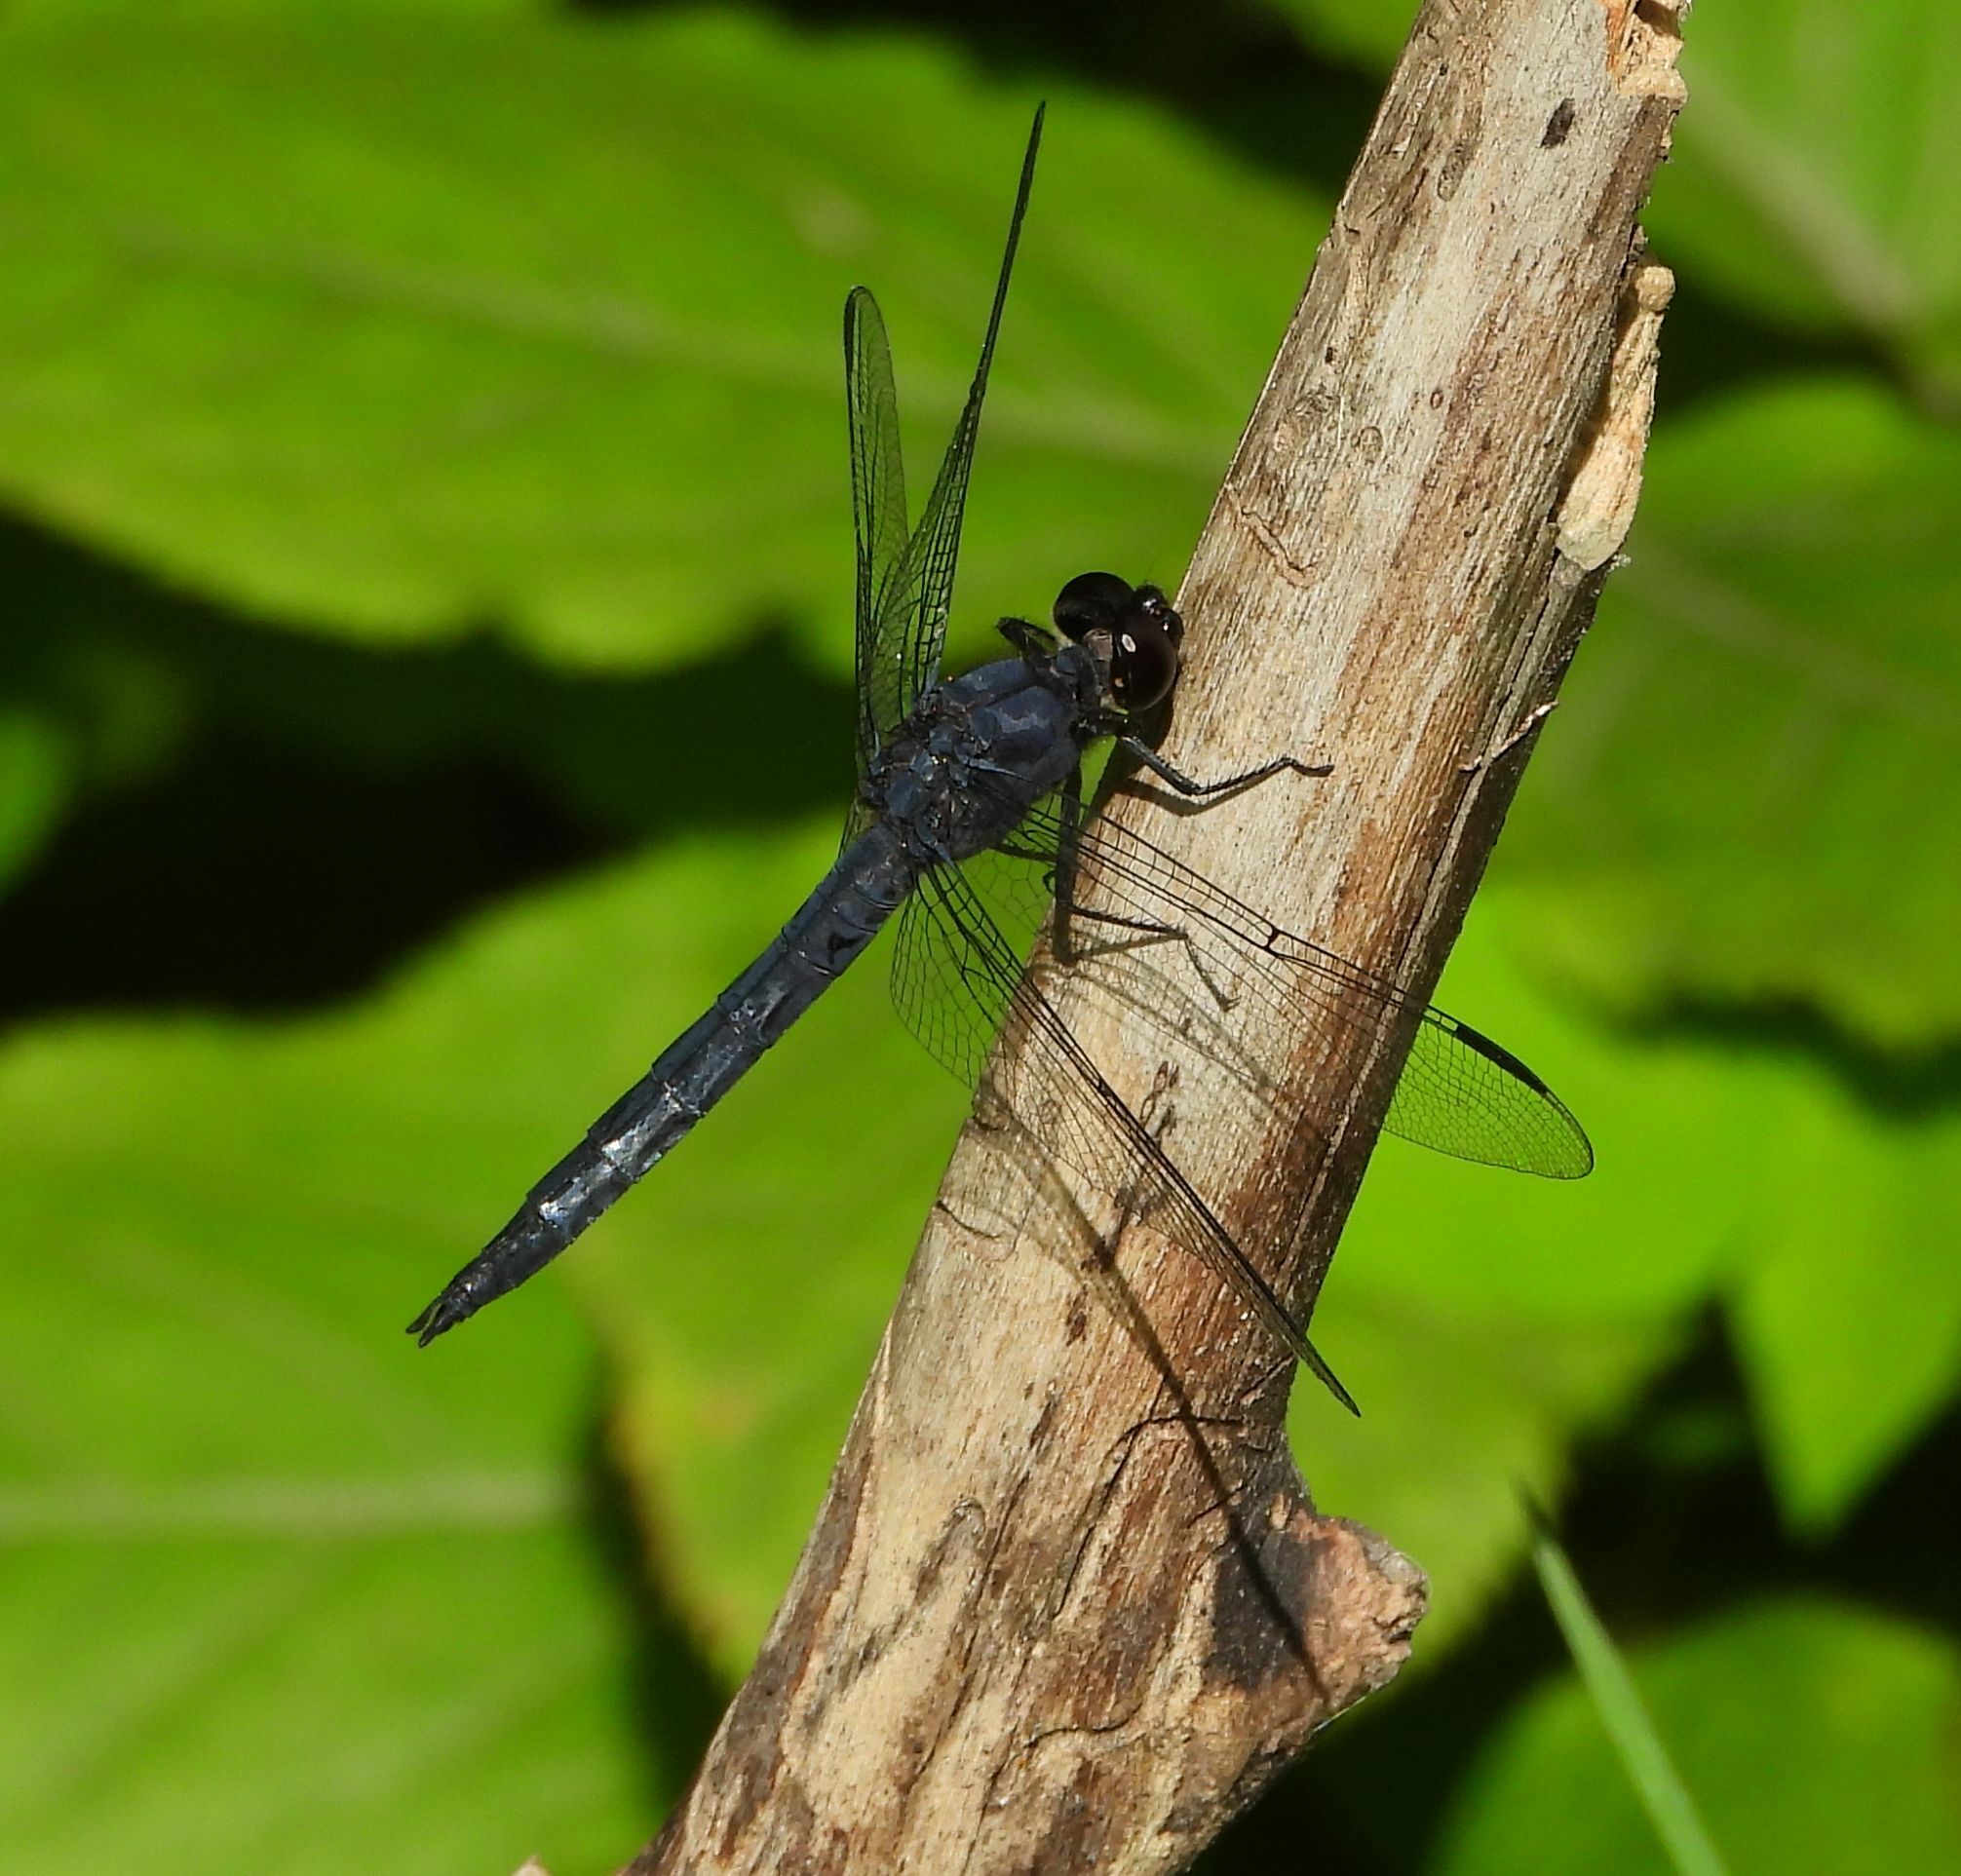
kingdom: Animalia
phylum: Arthropoda
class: Insecta
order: Odonata
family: Libellulidae
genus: Libellula
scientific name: Libellula incesta
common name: Slaty skimmer
